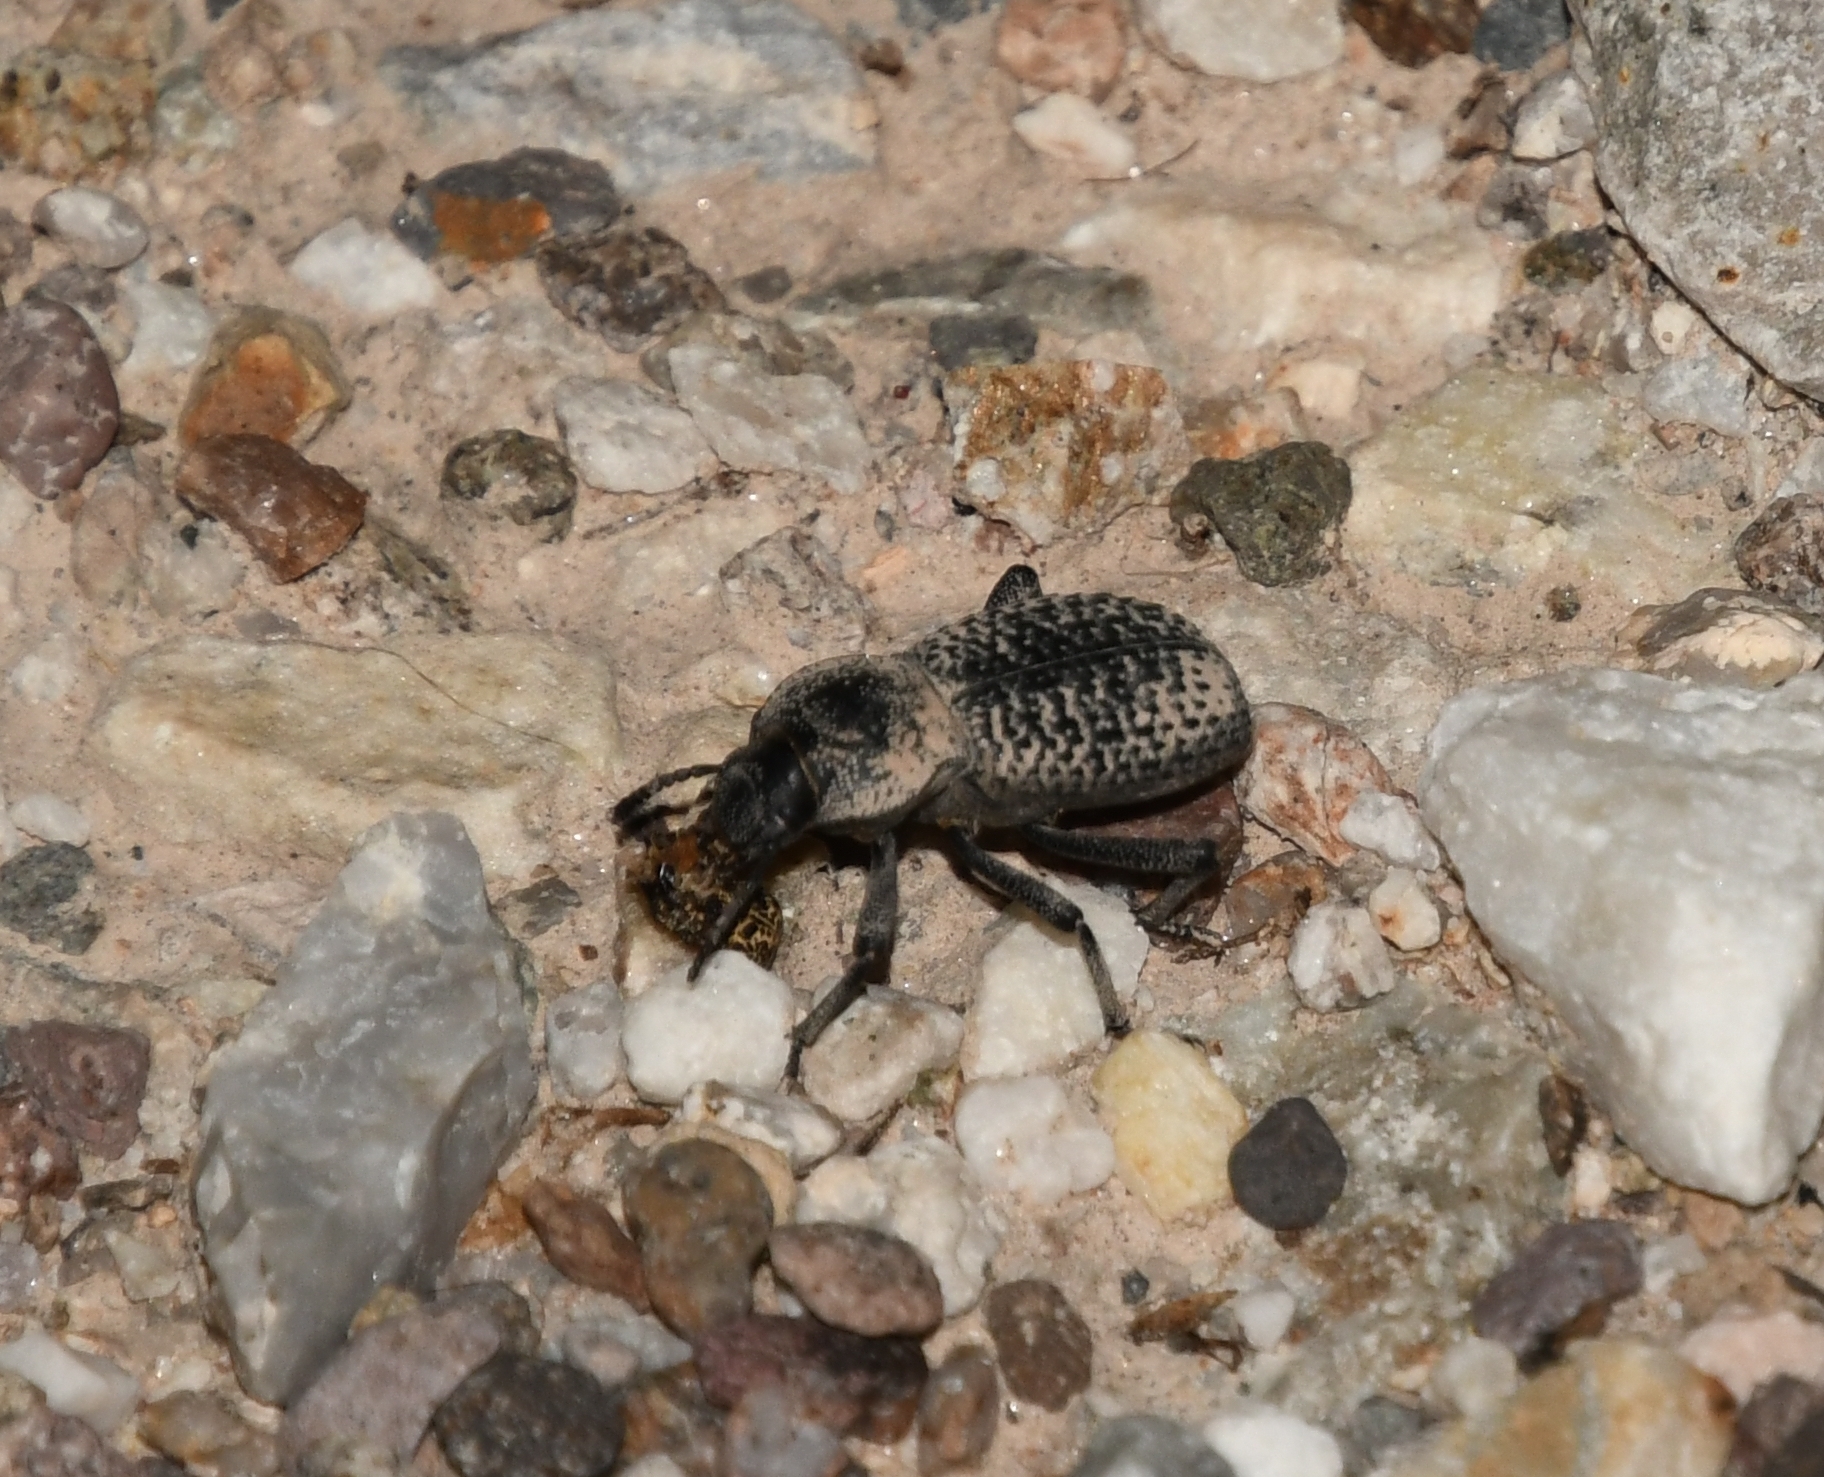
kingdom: Animalia
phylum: Arthropoda
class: Insecta
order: Coleoptera
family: Tenebrionidae
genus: Cryptoglossa
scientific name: Cryptoglossa variolosa
